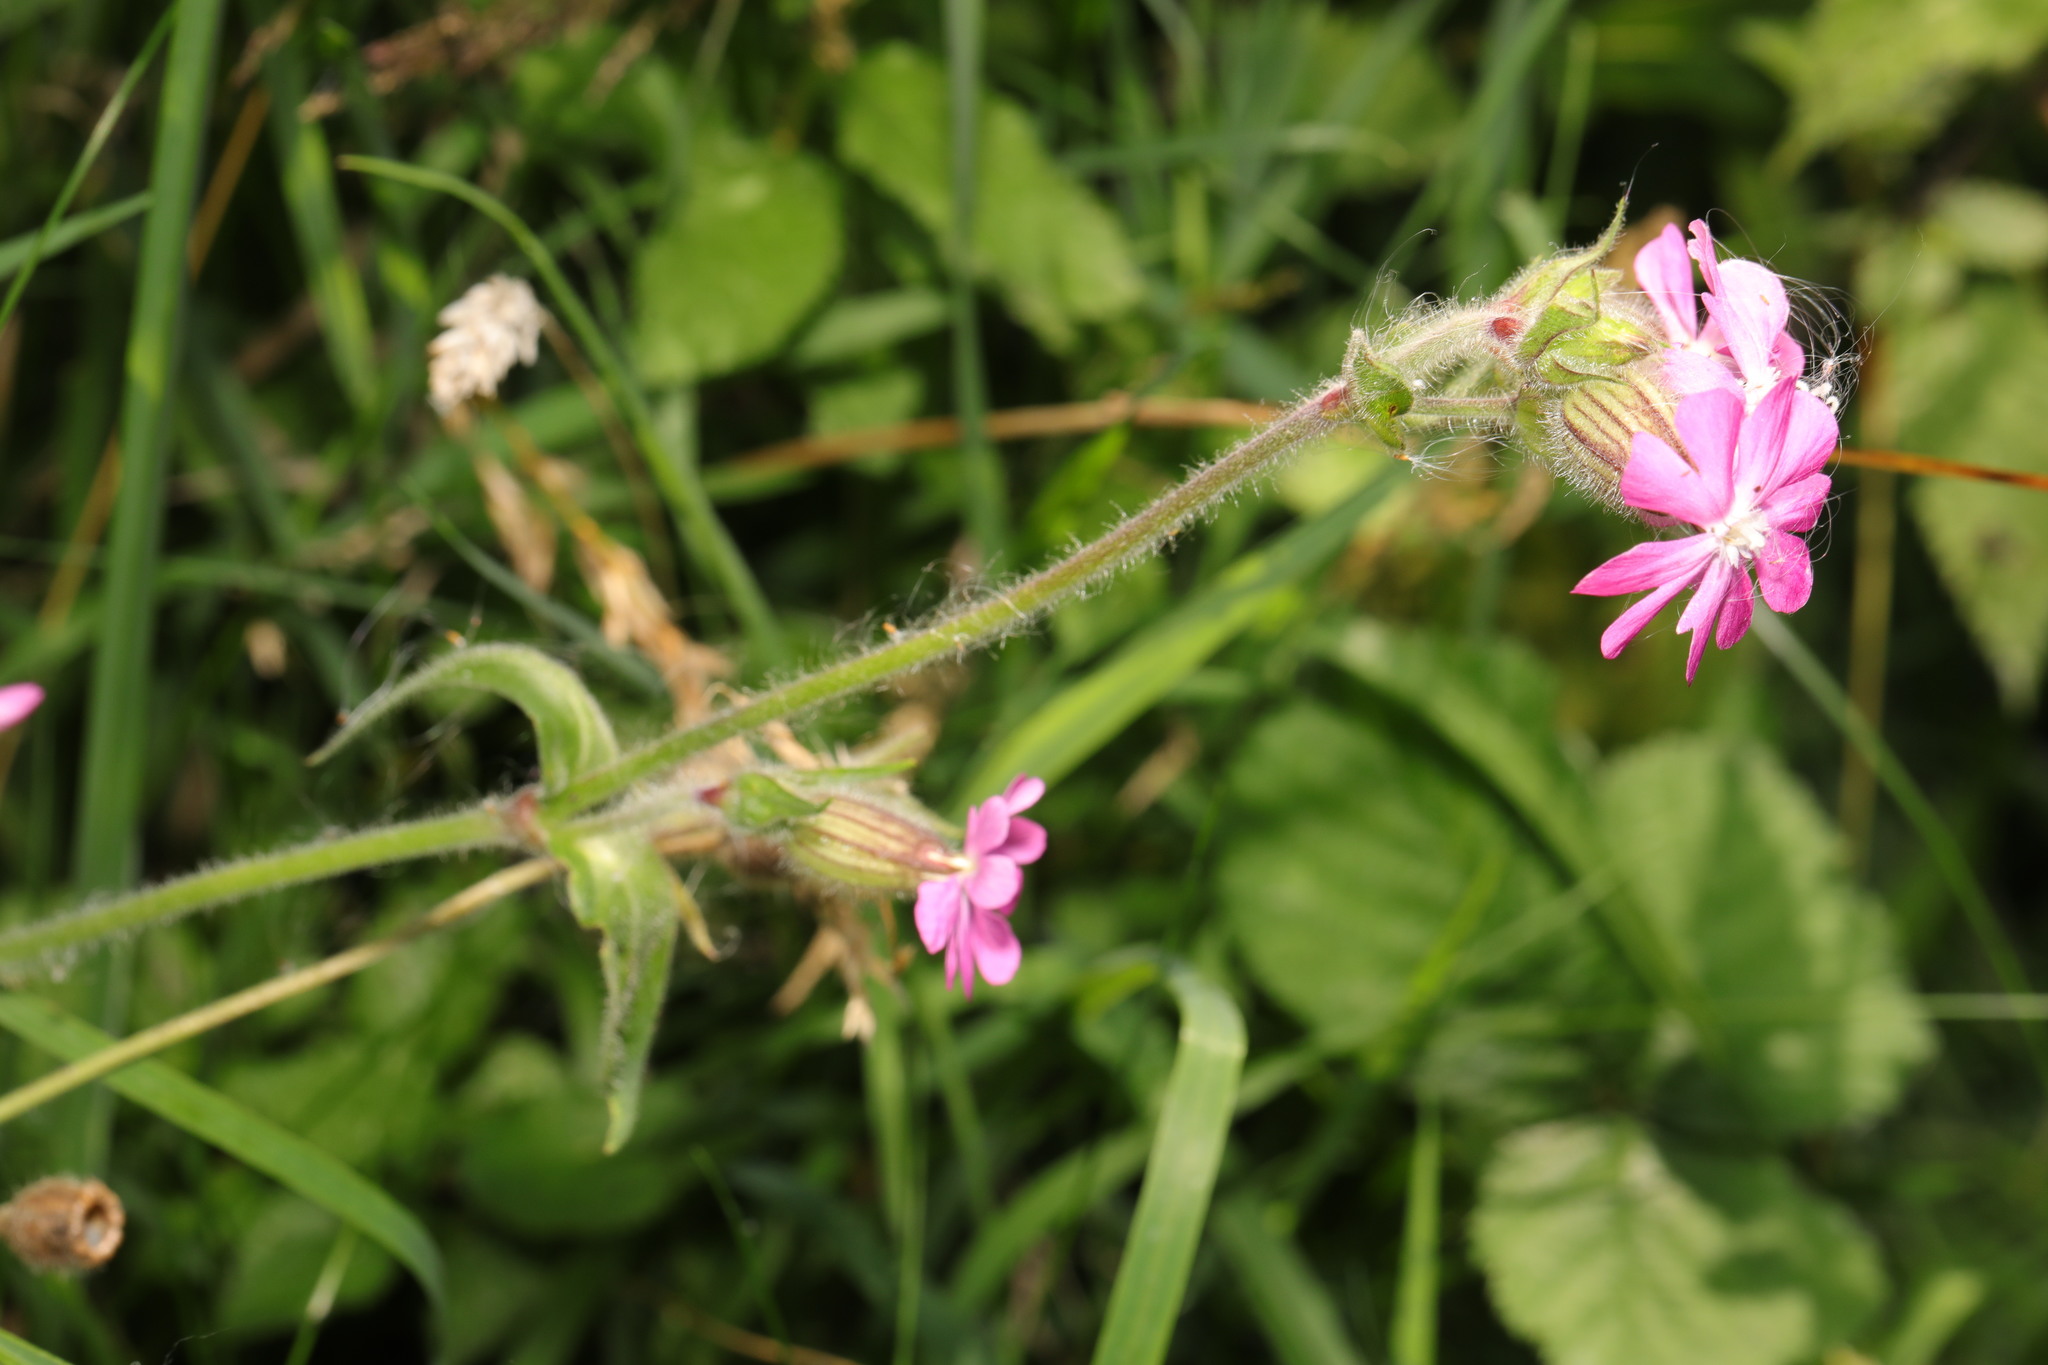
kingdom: Plantae
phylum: Tracheophyta
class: Magnoliopsida
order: Caryophyllales
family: Caryophyllaceae
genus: Silene
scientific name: Silene dioica
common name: Red campion
